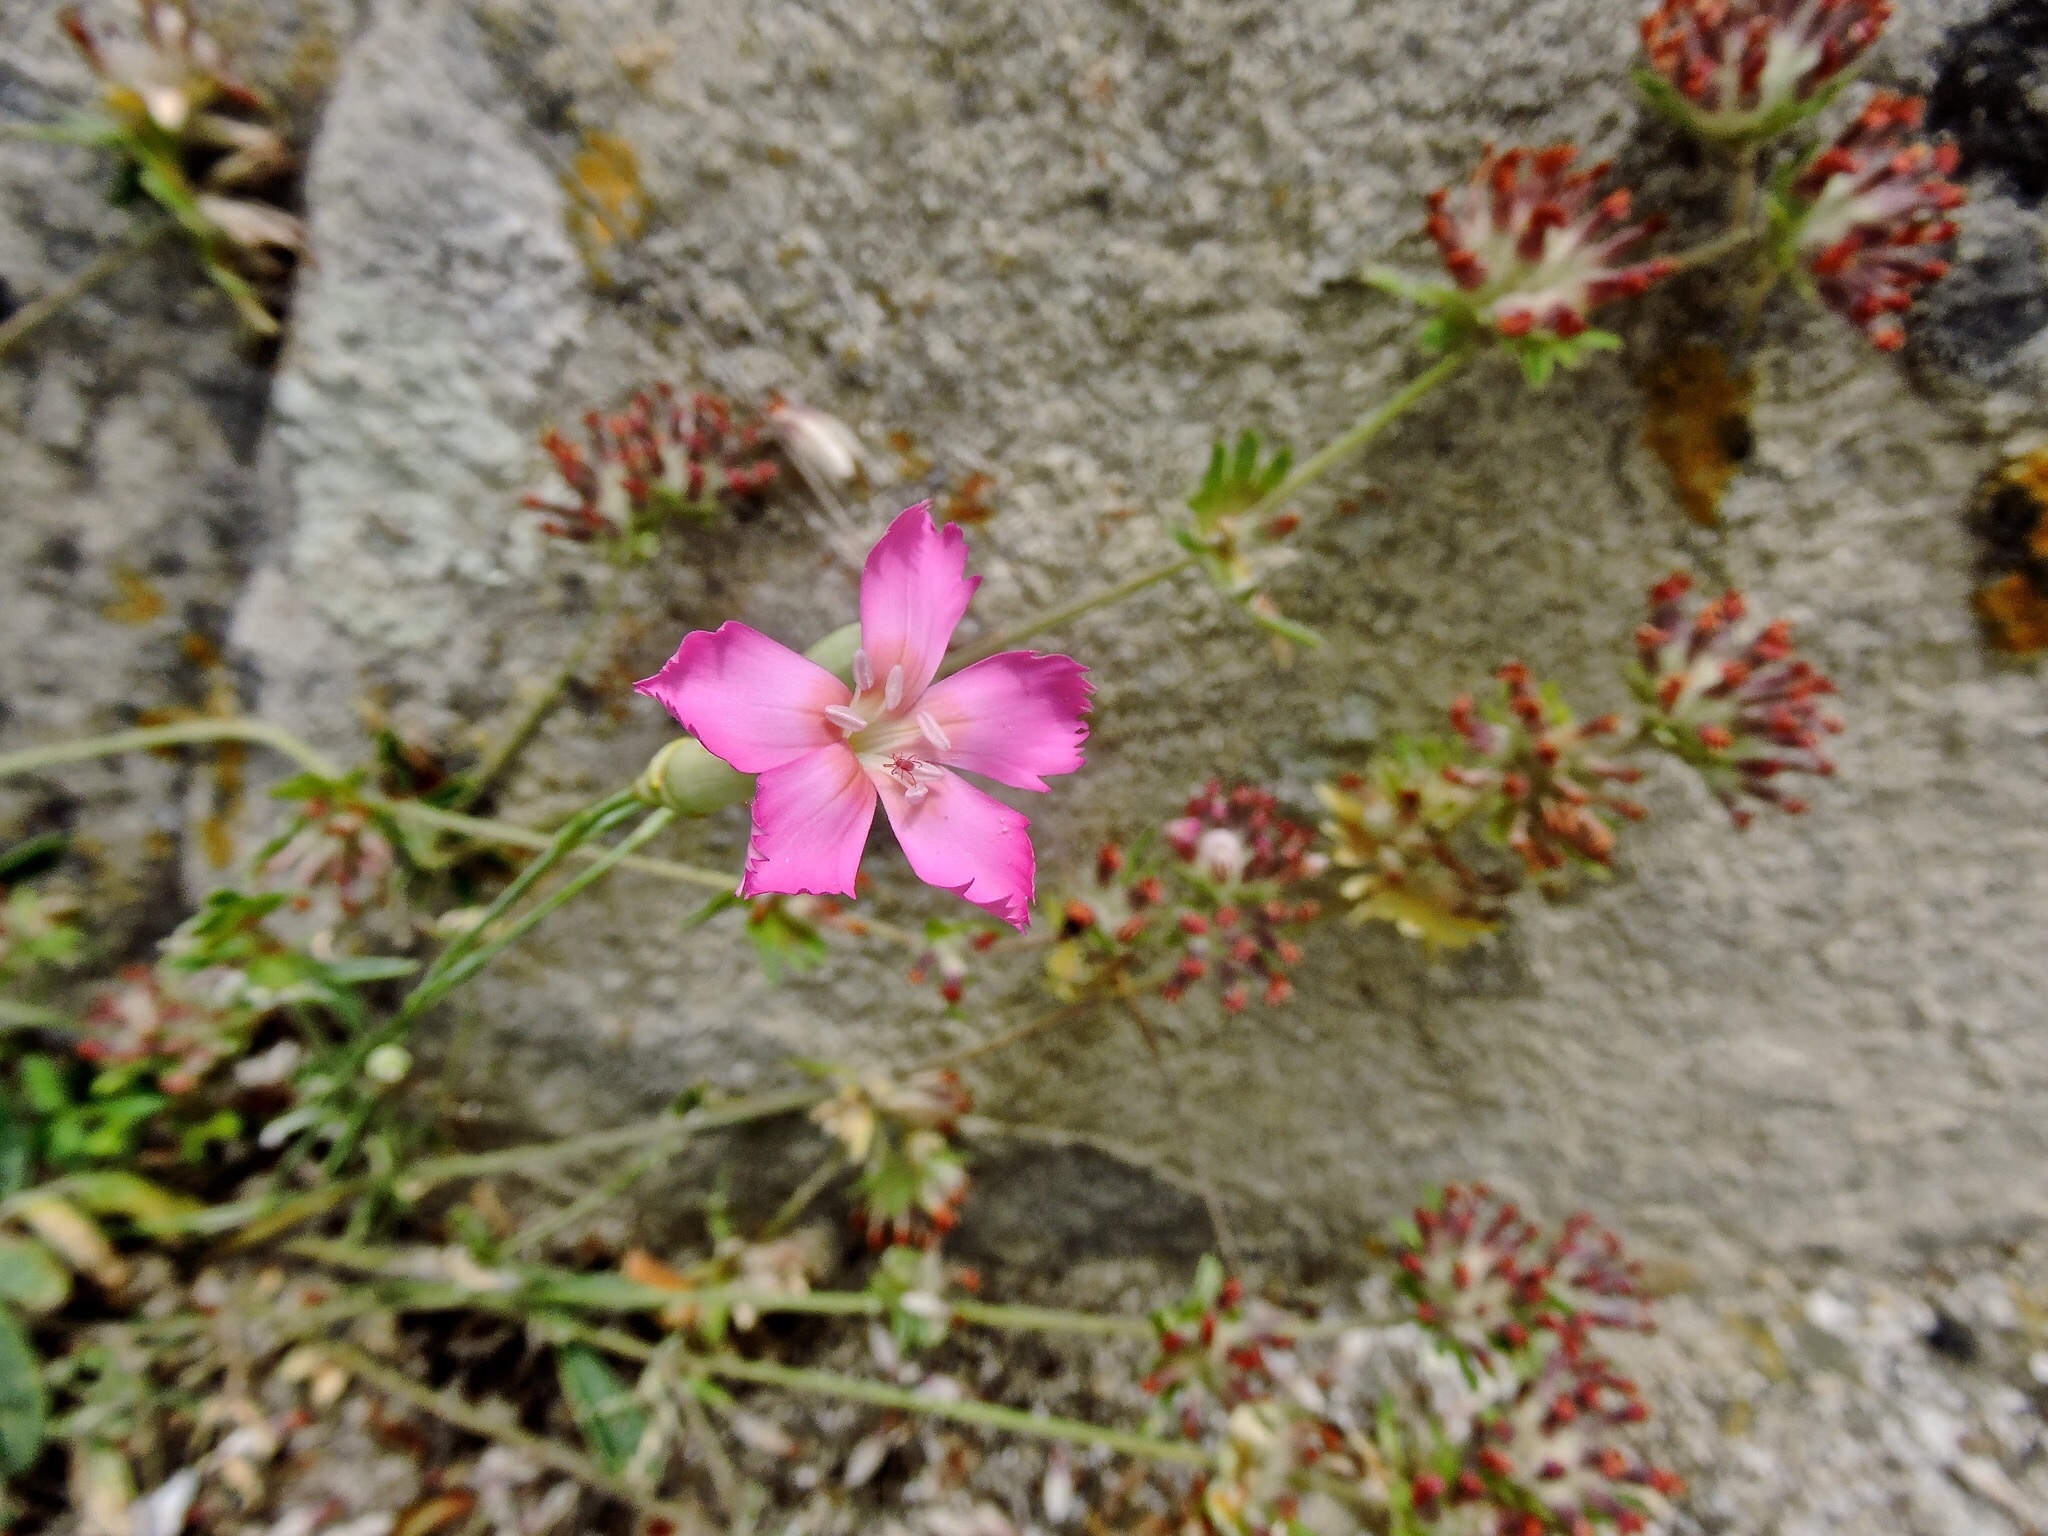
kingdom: Plantae
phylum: Tracheophyta
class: Magnoliopsida
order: Caryophyllales
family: Caryophyllaceae
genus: Dianthus
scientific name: Dianthus virgineus
